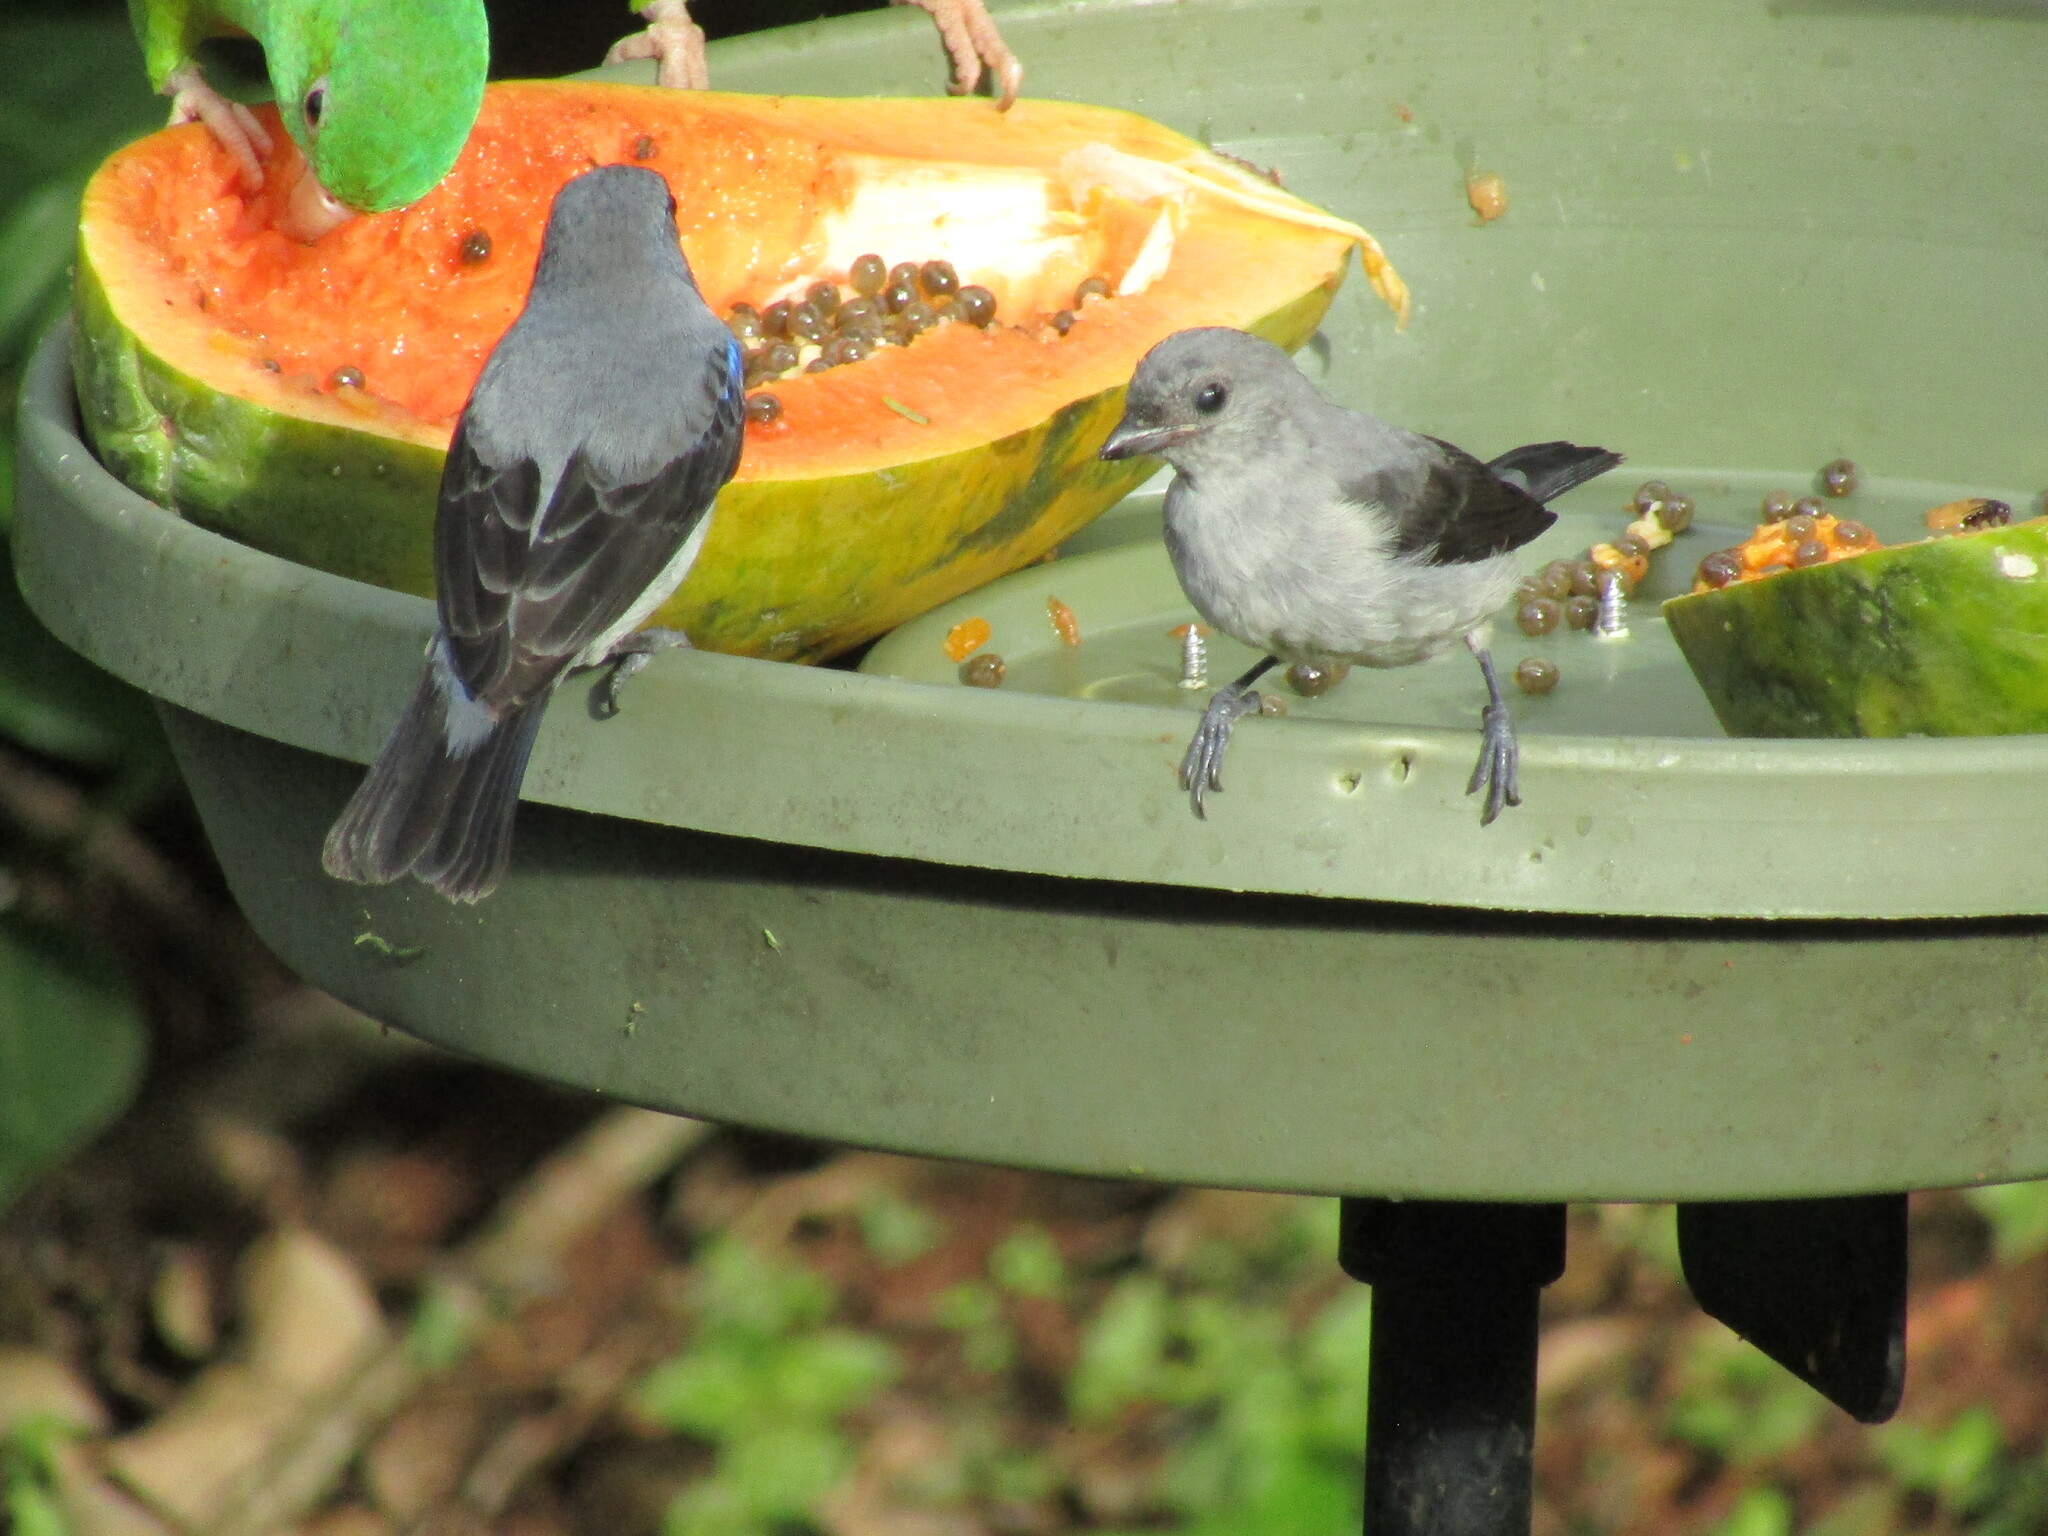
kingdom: Animalia
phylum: Chordata
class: Aves
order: Passeriformes
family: Thraupidae
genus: Tangara
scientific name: Tangara inornata
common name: Plain-colored tanager
